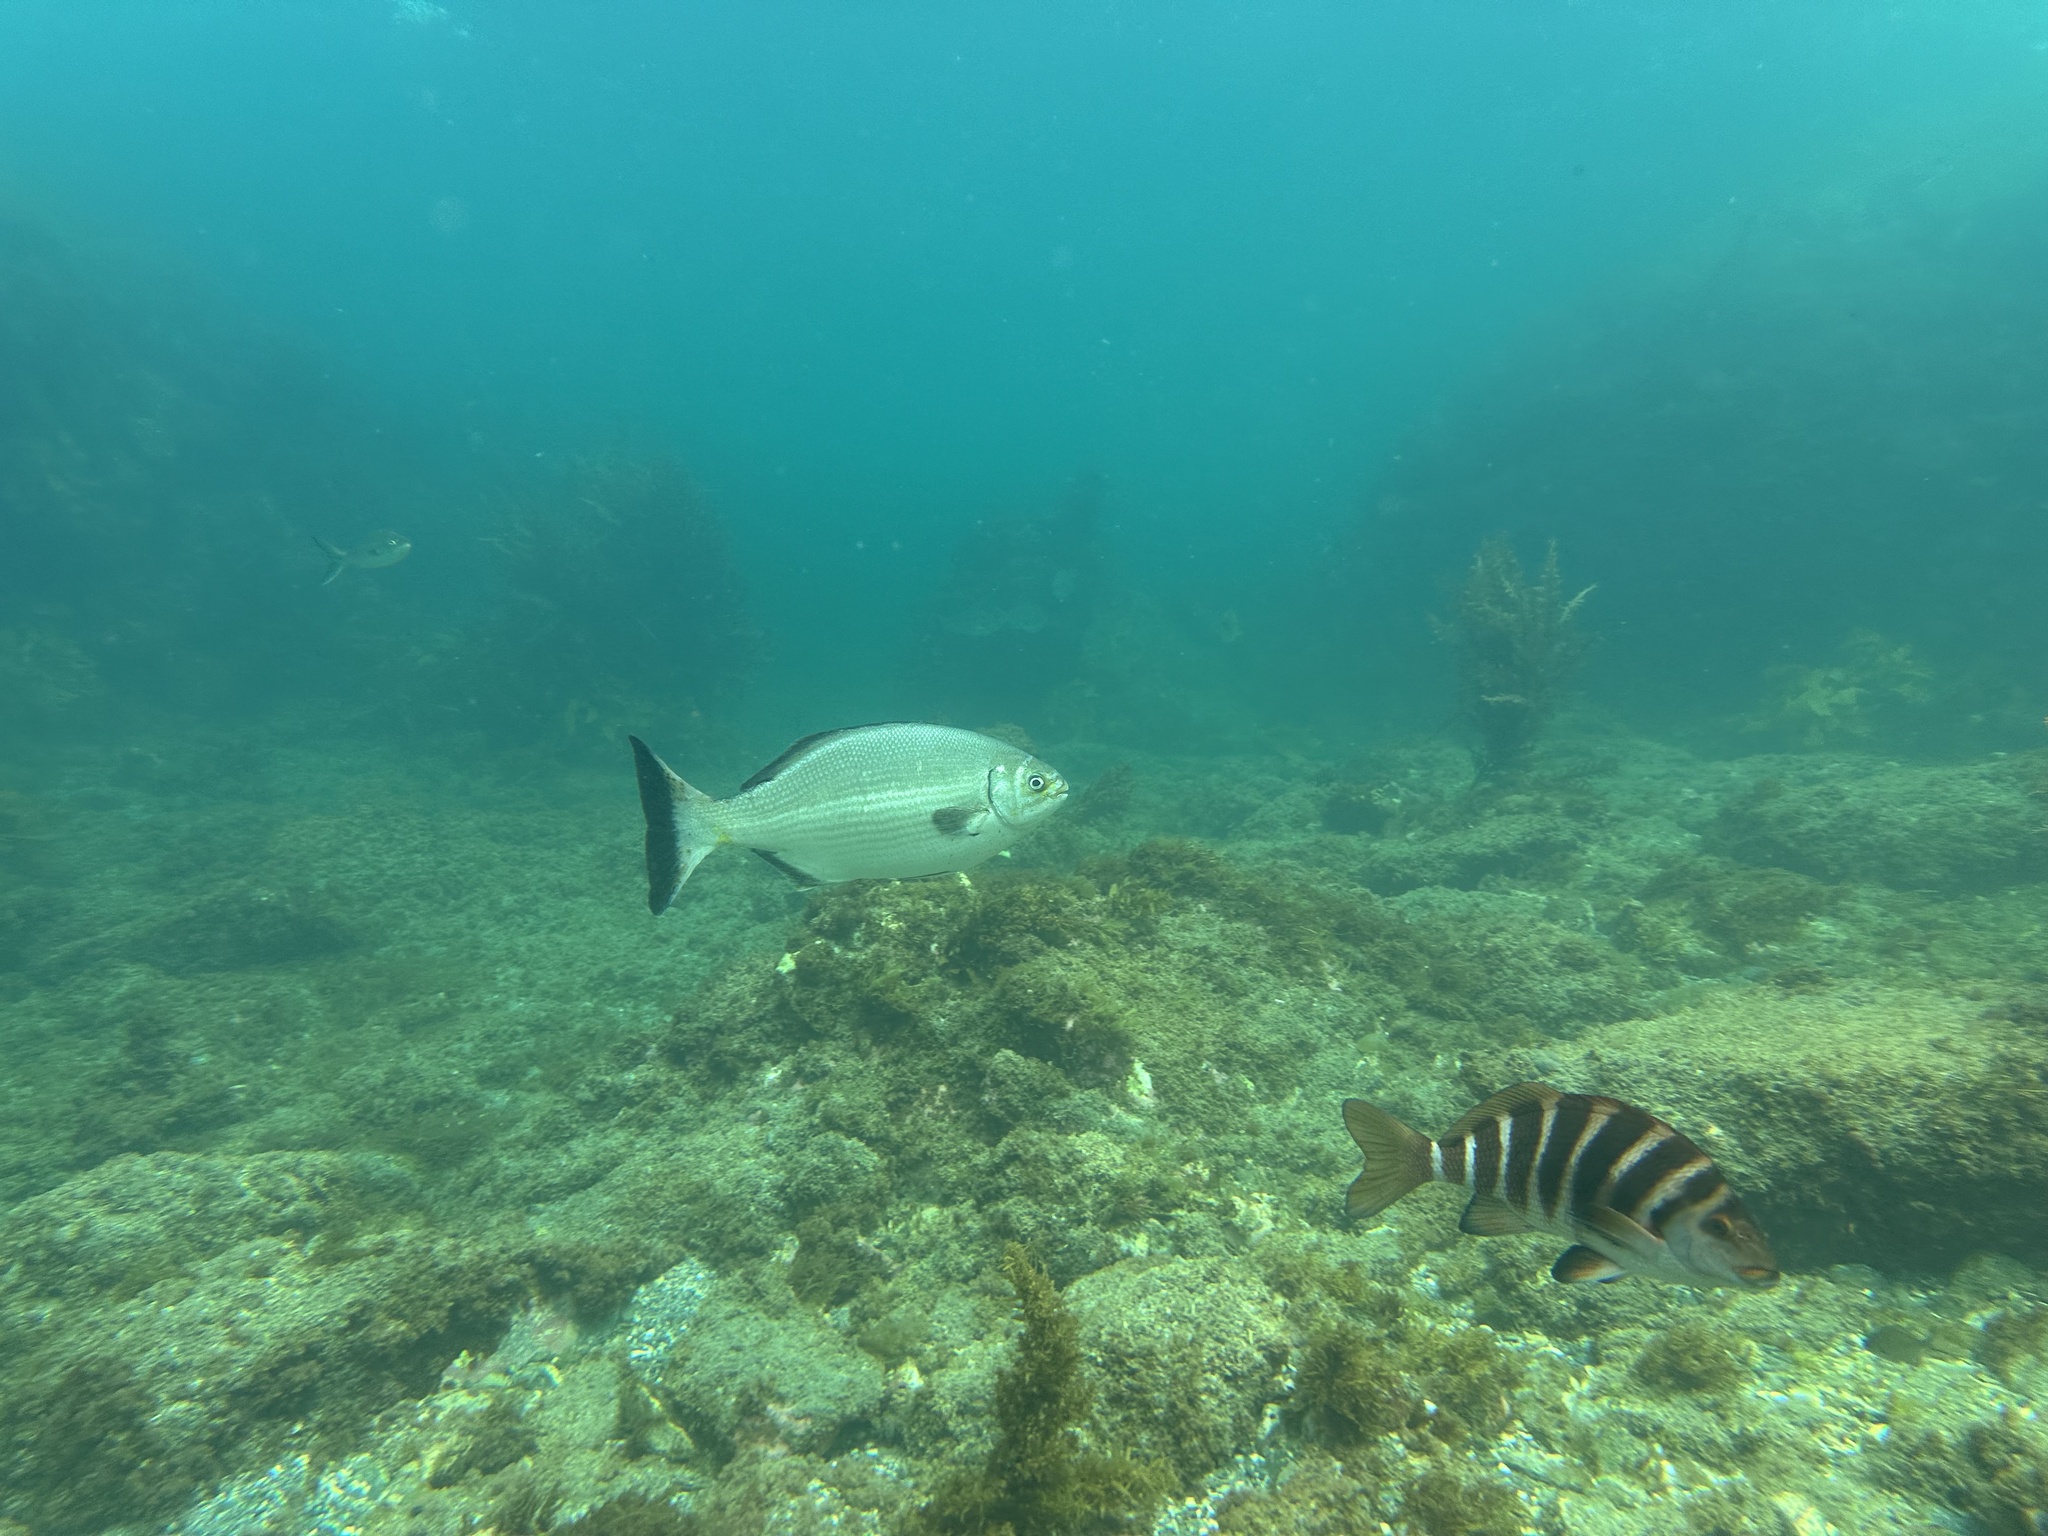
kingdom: Animalia
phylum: Chordata
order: Perciformes
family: Kyphosidae
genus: Kyphosus
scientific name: Kyphosus sydneyanus
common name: Silver drummer
